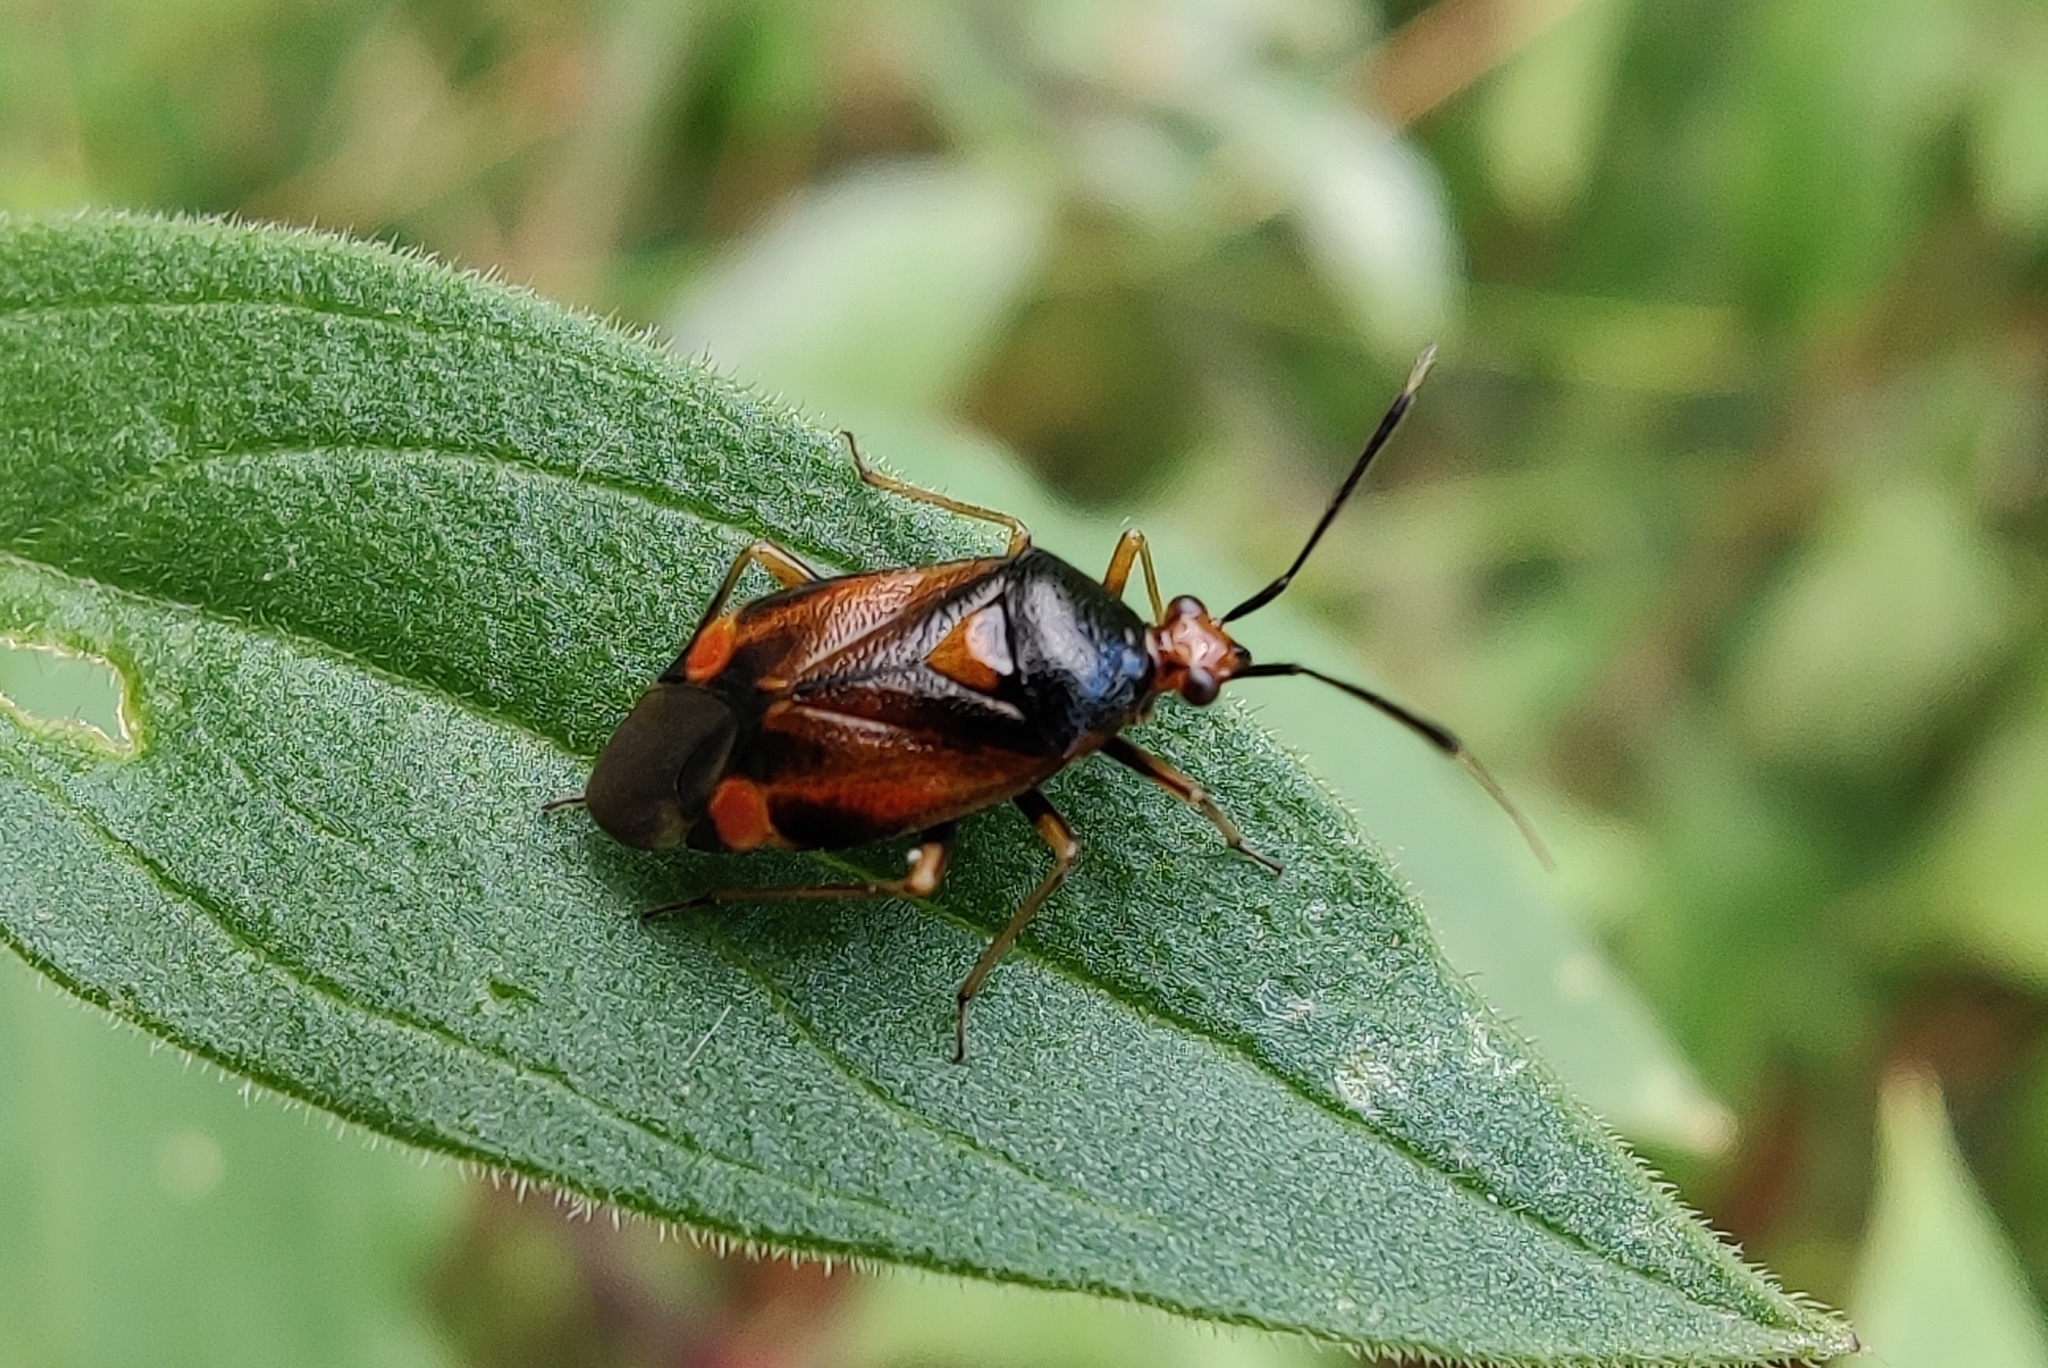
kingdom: Animalia
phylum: Arthropoda
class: Insecta
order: Hemiptera
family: Miridae
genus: Deraeocoris
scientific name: Deraeocoris ruber
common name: Plant bug
